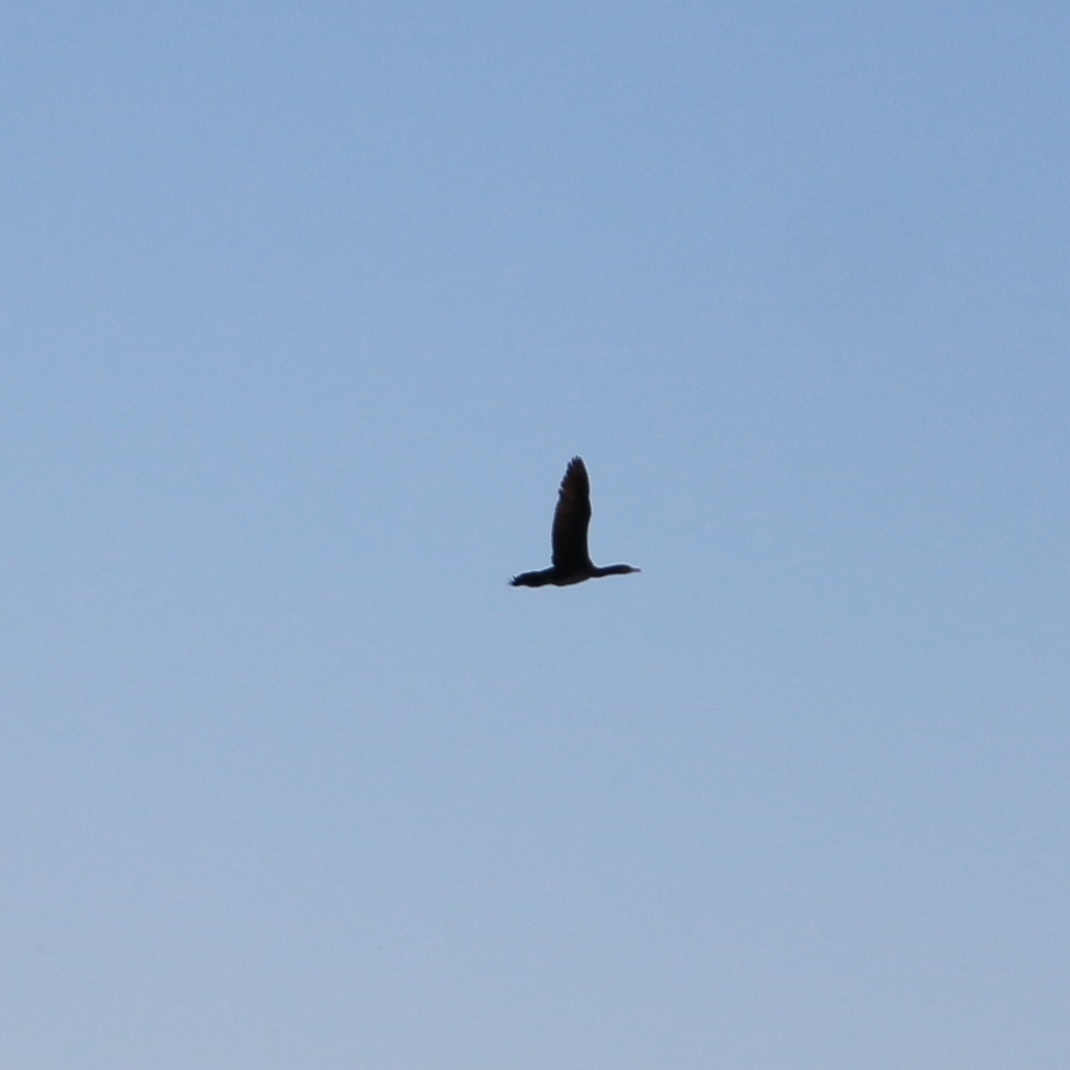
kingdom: Animalia
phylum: Chordata
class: Aves
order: Suliformes
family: Phalacrocoracidae
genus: Phalacrocorax
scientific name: Phalacrocorax carbo
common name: Great cormorant
